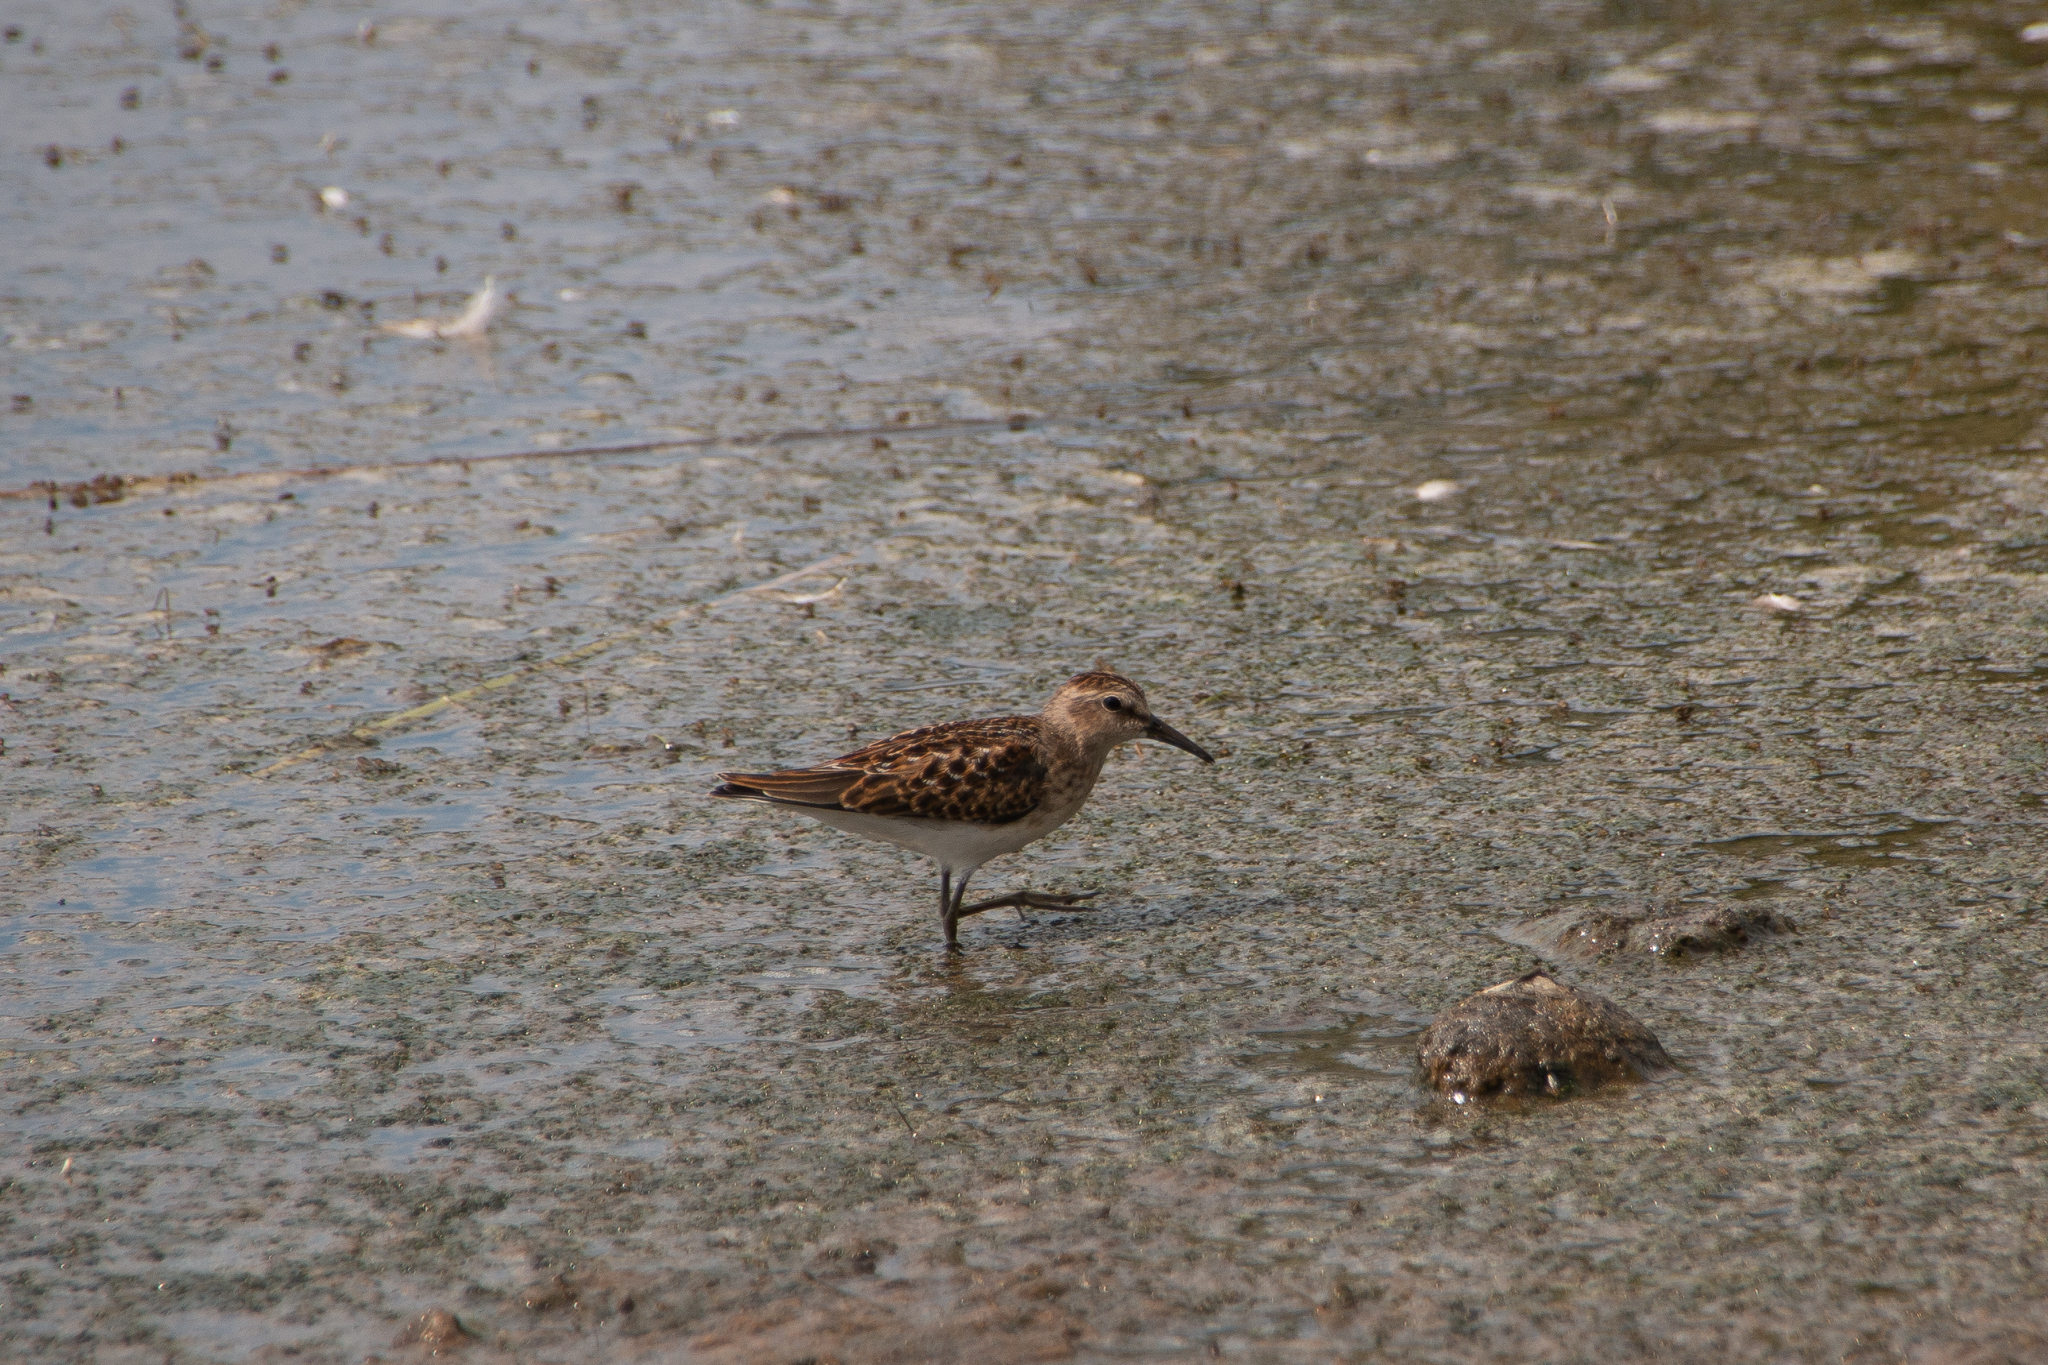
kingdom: Animalia
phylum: Chordata
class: Aves
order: Charadriiformes
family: Scolopacidae
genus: Calidris
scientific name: Calidris minutilla
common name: Least sandpiper
